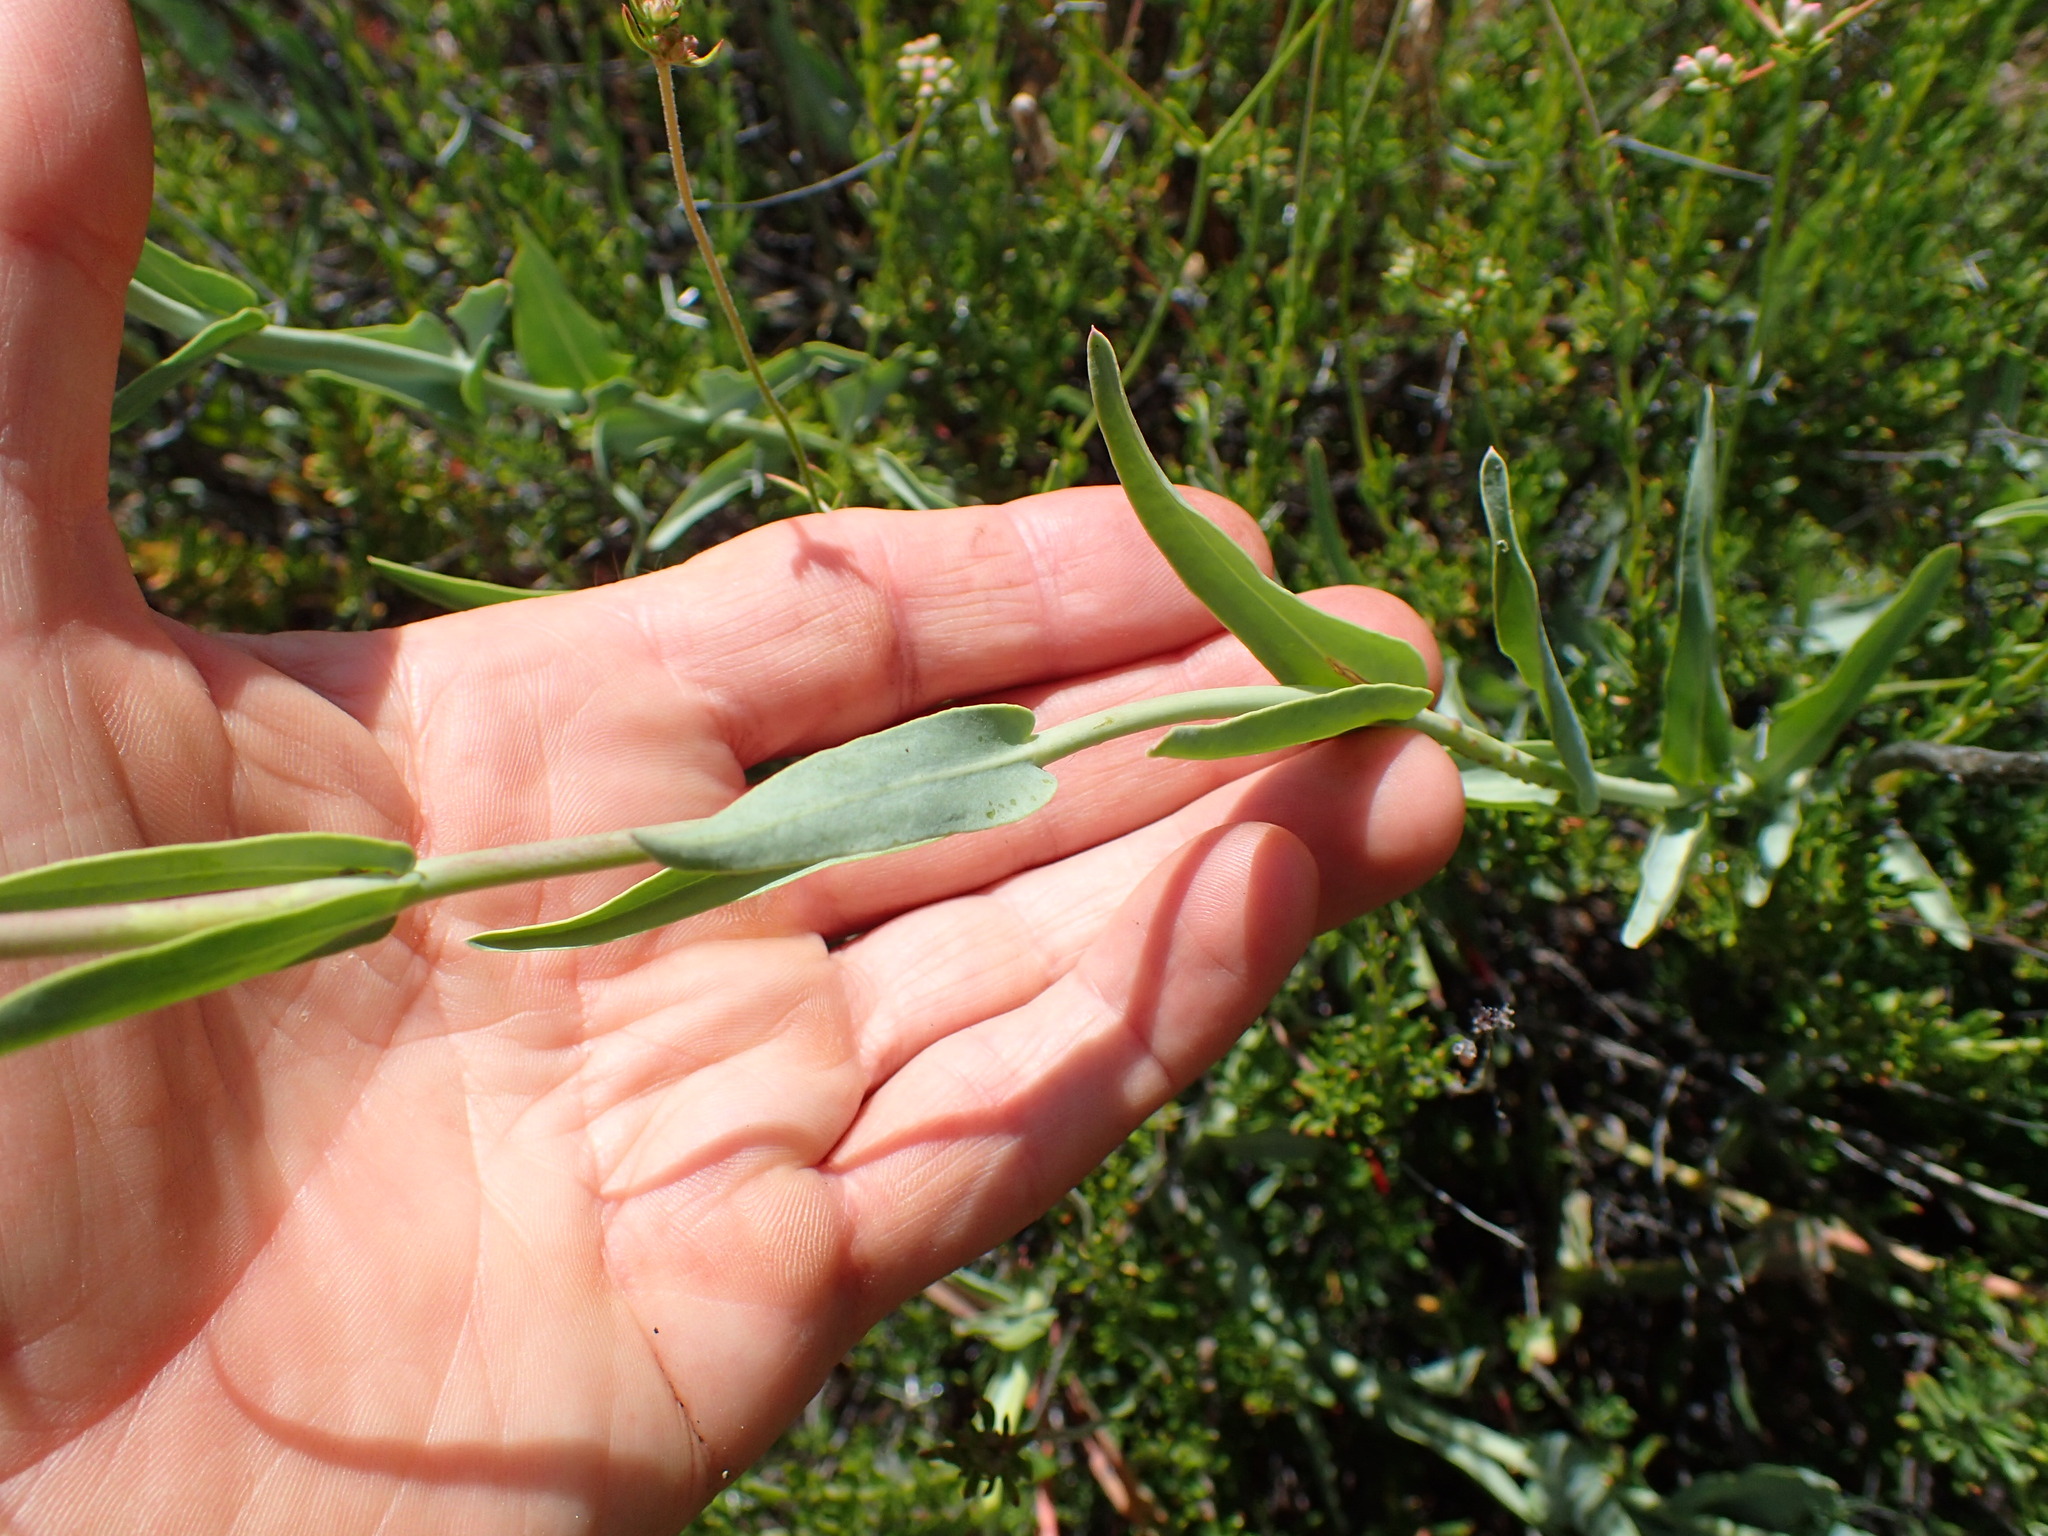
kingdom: Plantae
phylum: Tracheophyta
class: Magnoliopsida
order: Lamiales
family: Plantaginaceae
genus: Penstemon
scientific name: Penstemon centranthifolius
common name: Scarlet bugler
